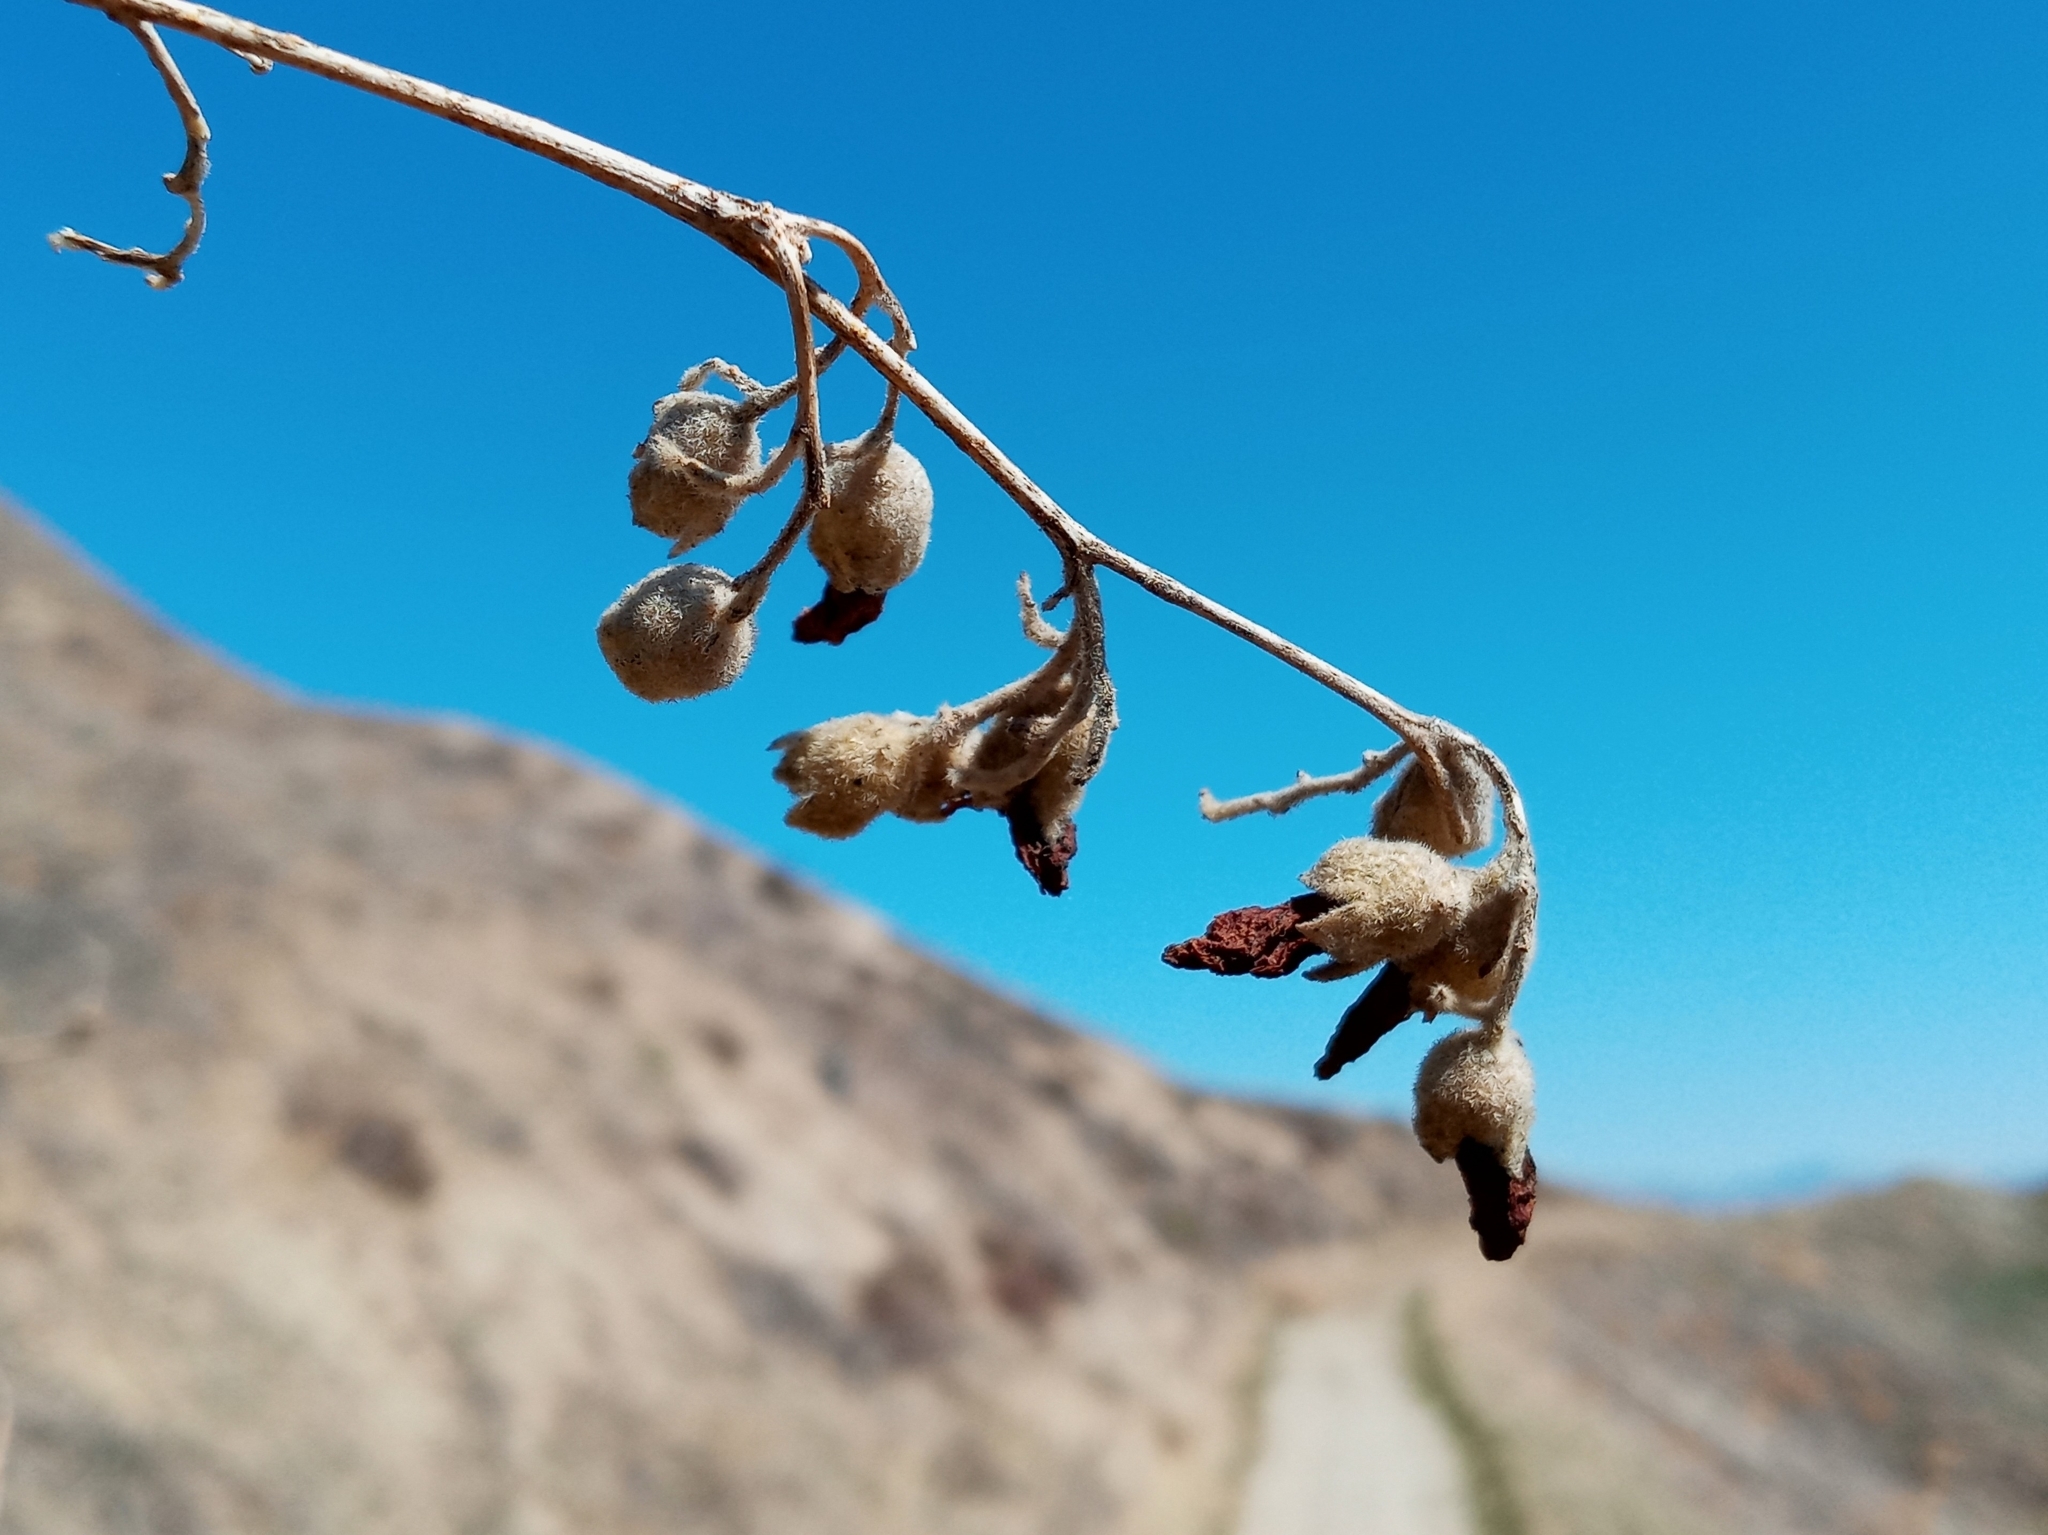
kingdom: Plantae
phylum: Tracheophyta
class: Magnoliopsida
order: Malvales
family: Malvaceae
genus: Malacothamnus
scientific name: Malacothamnus fasciculatus
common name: Sant cruz island bush-mallow
